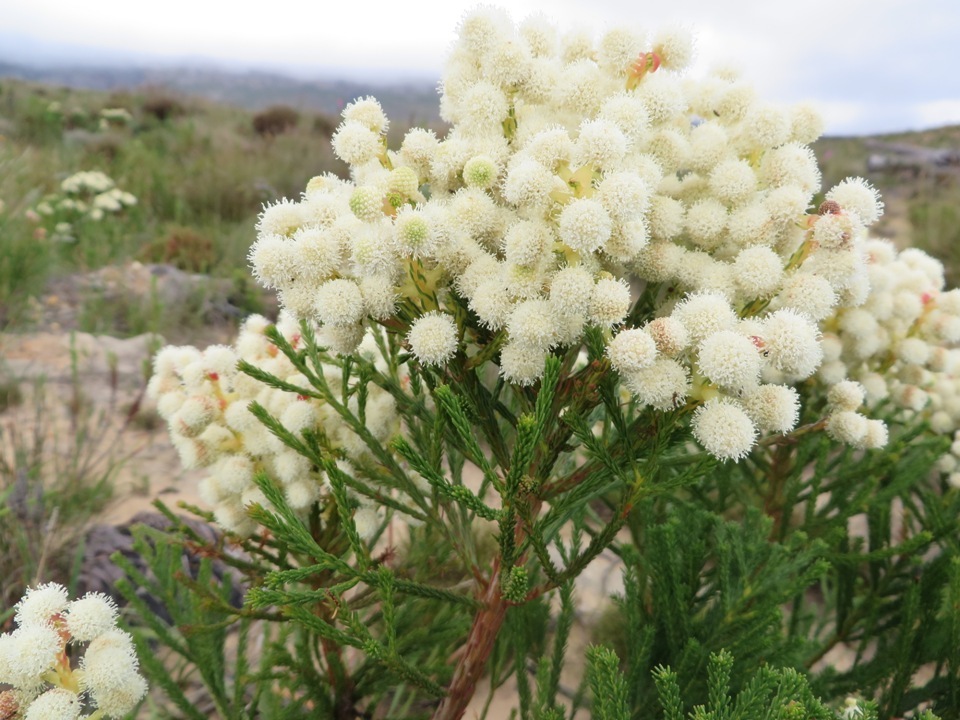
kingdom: Plantae
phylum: Tracheophyta
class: Magnoliopsida
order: Bruniales
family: Bruniaceae
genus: Berzelia
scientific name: Berzelia lanuginosa
